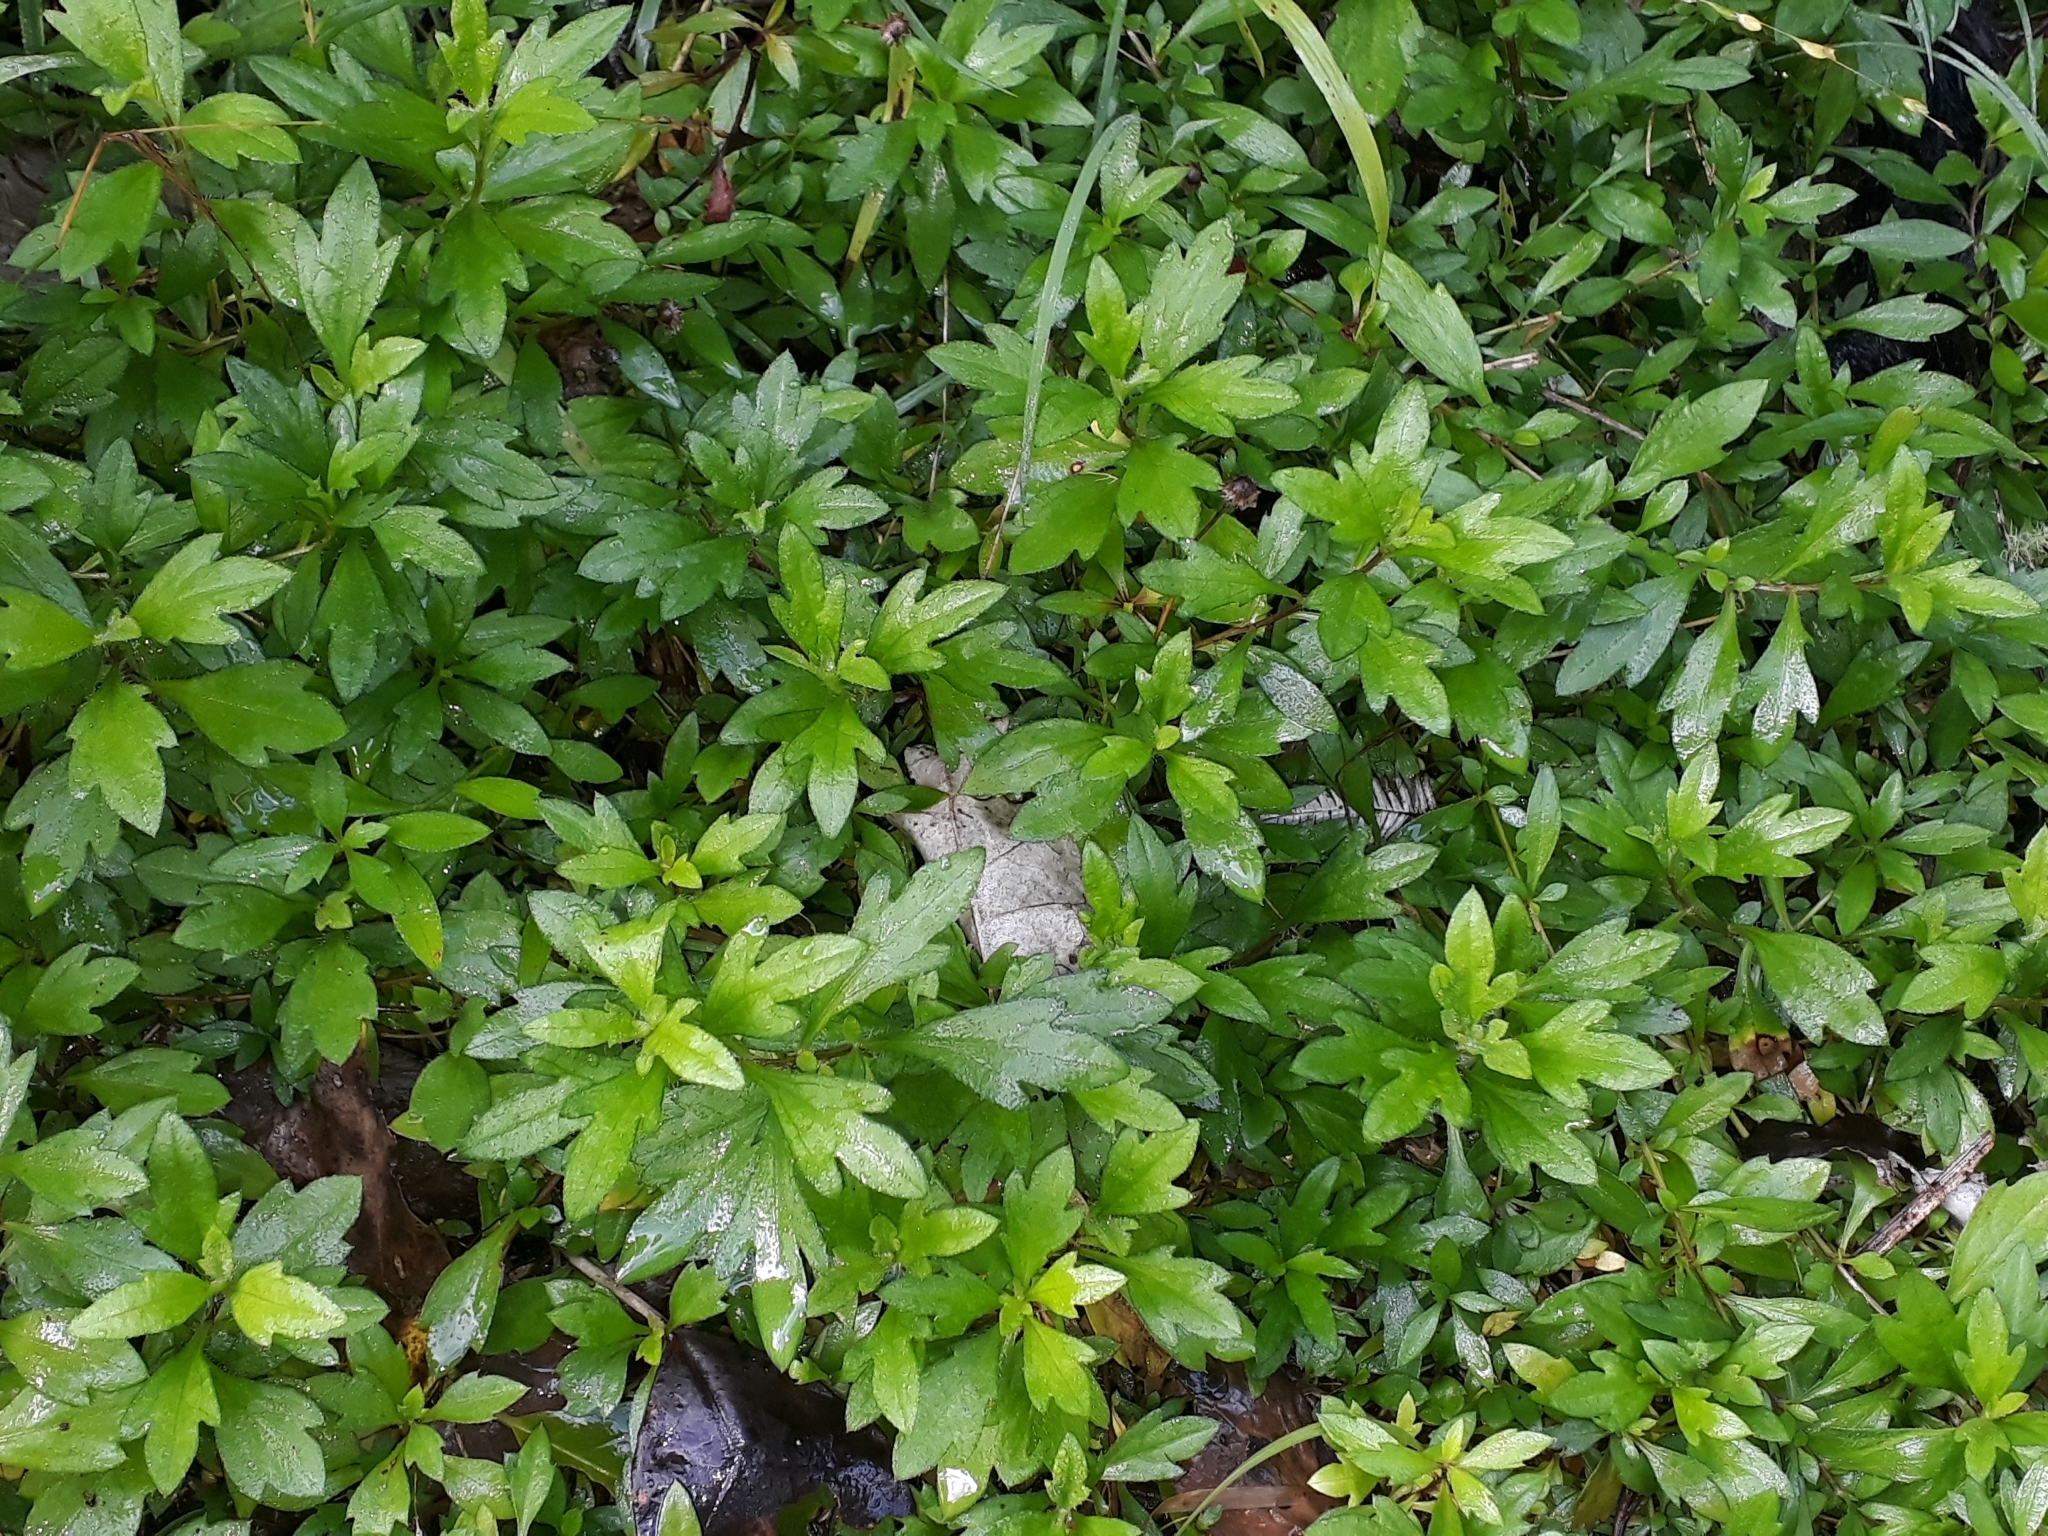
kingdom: Plantae
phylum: Tracheophyta
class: Magnoliopsida
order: Asterales
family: Asteraceae
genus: Erigeron
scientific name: Erigeron karvinskianus
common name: Mexican fleabane
